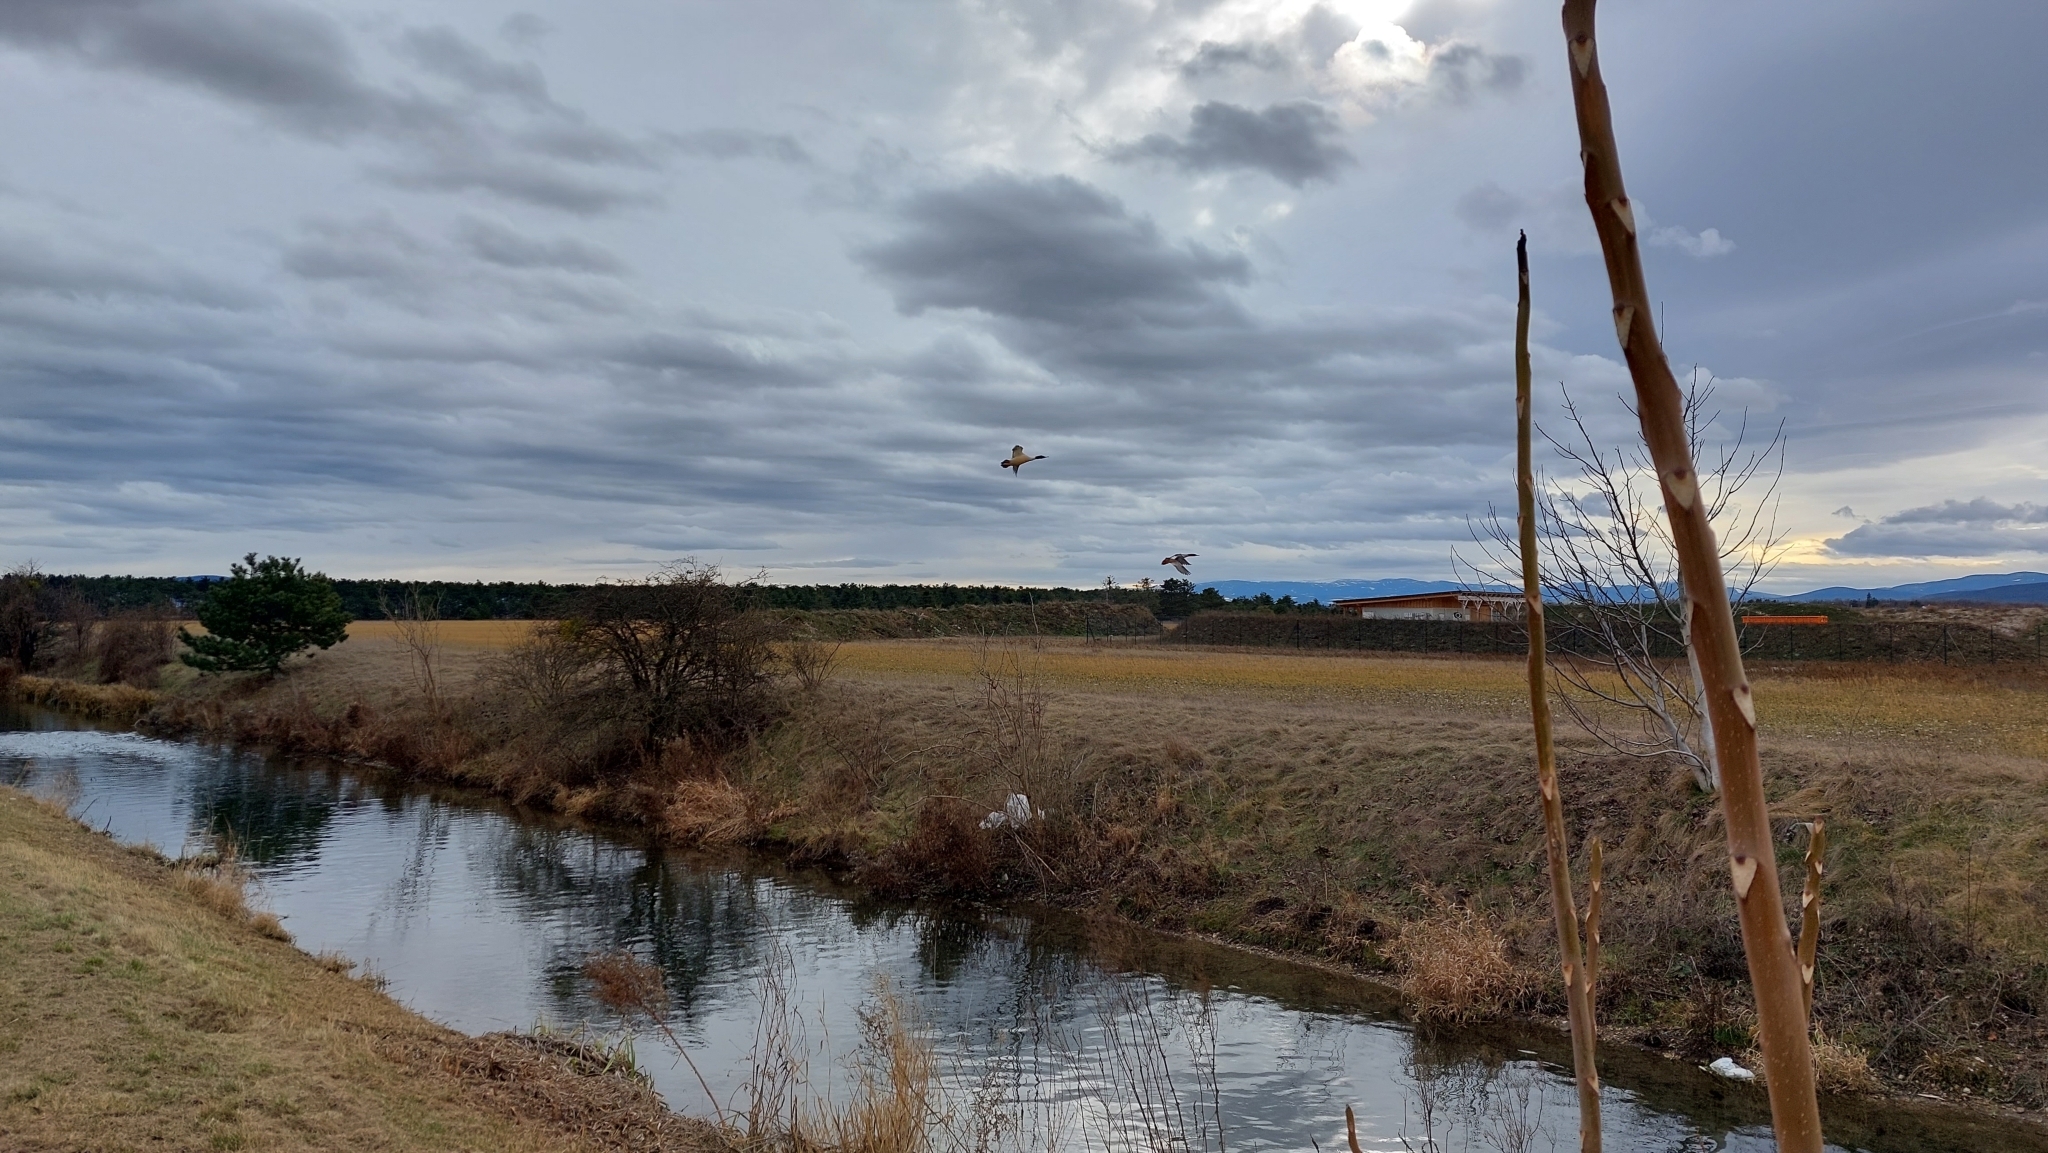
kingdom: Animalia
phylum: Chordata
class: Aves
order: Anseriformes
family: Anatidae
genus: Mergus
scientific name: Mergus merganser
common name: Common merganser
